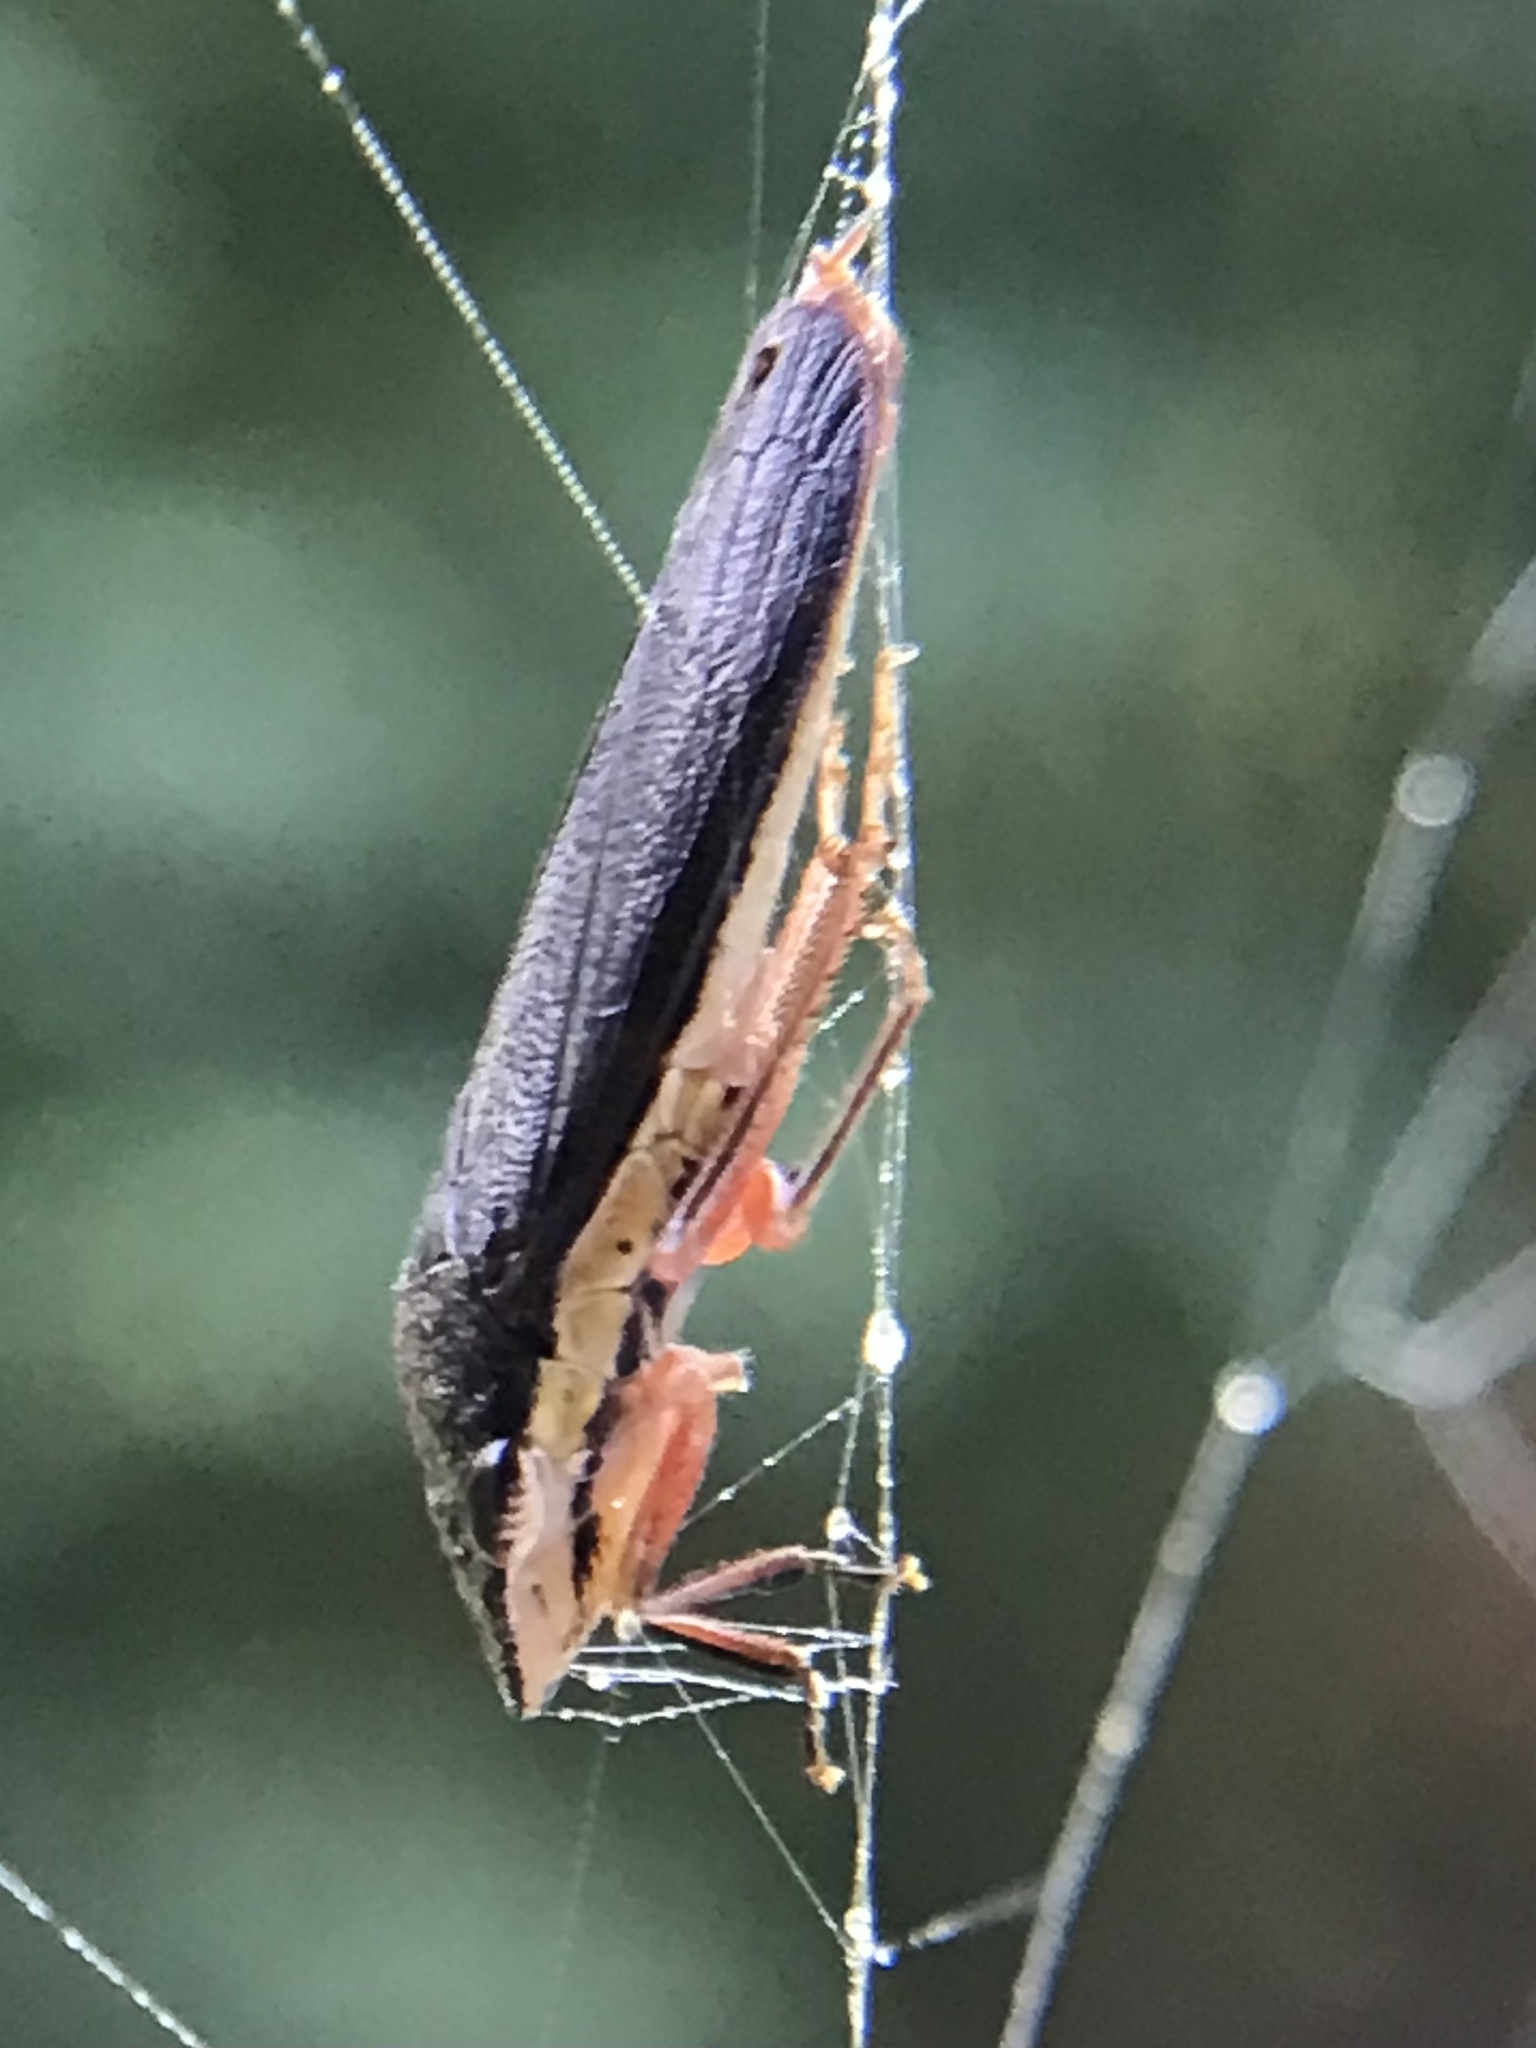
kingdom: Animalia
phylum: Arthropoda
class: Insecta
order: Hemiptera
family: Cicadellidae
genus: Homalodisca
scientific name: Homalodisca insolita
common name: Johnson grass sharpshooter
